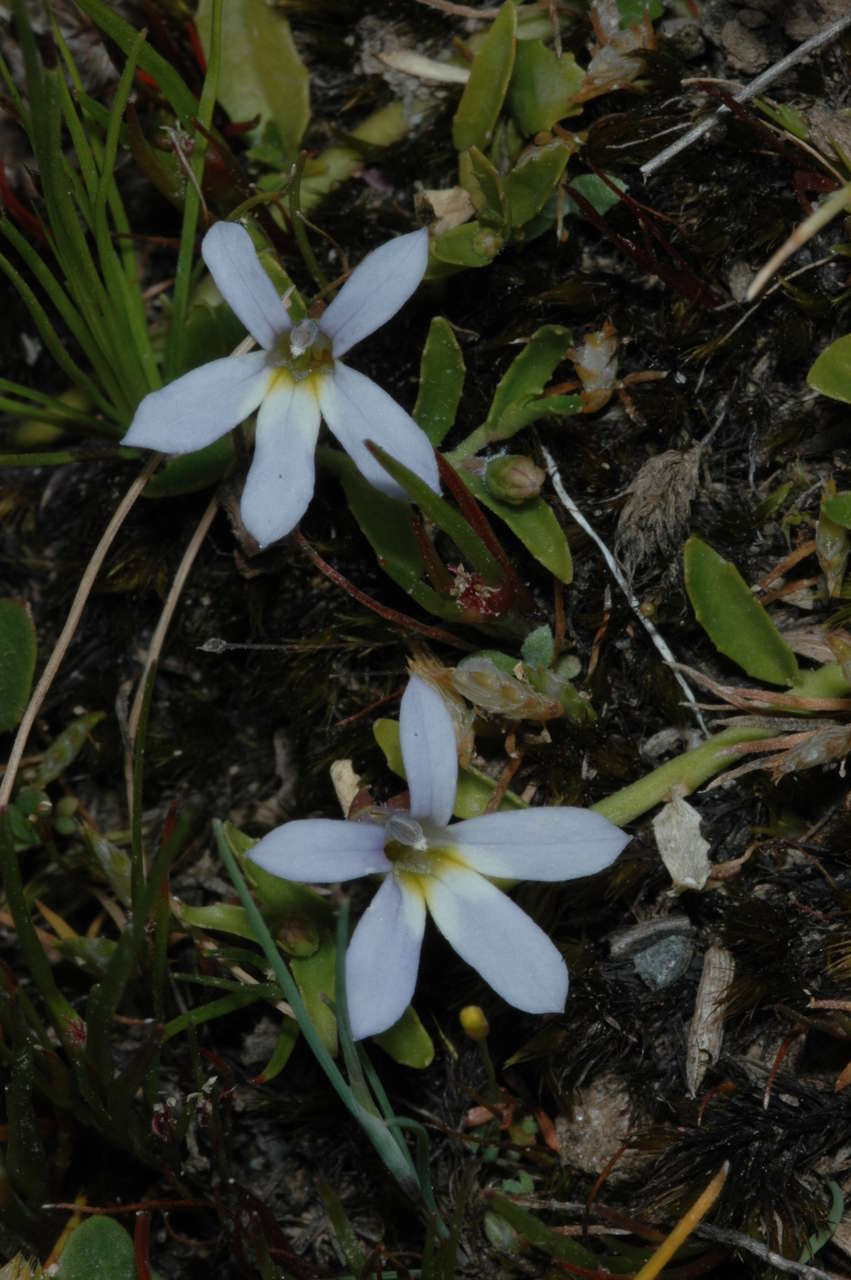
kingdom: Plantae
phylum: Tracheophyta
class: Magnoliopsida
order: Asterales
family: Campanulaceae
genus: Lobelia
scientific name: Lobelia pratioides
